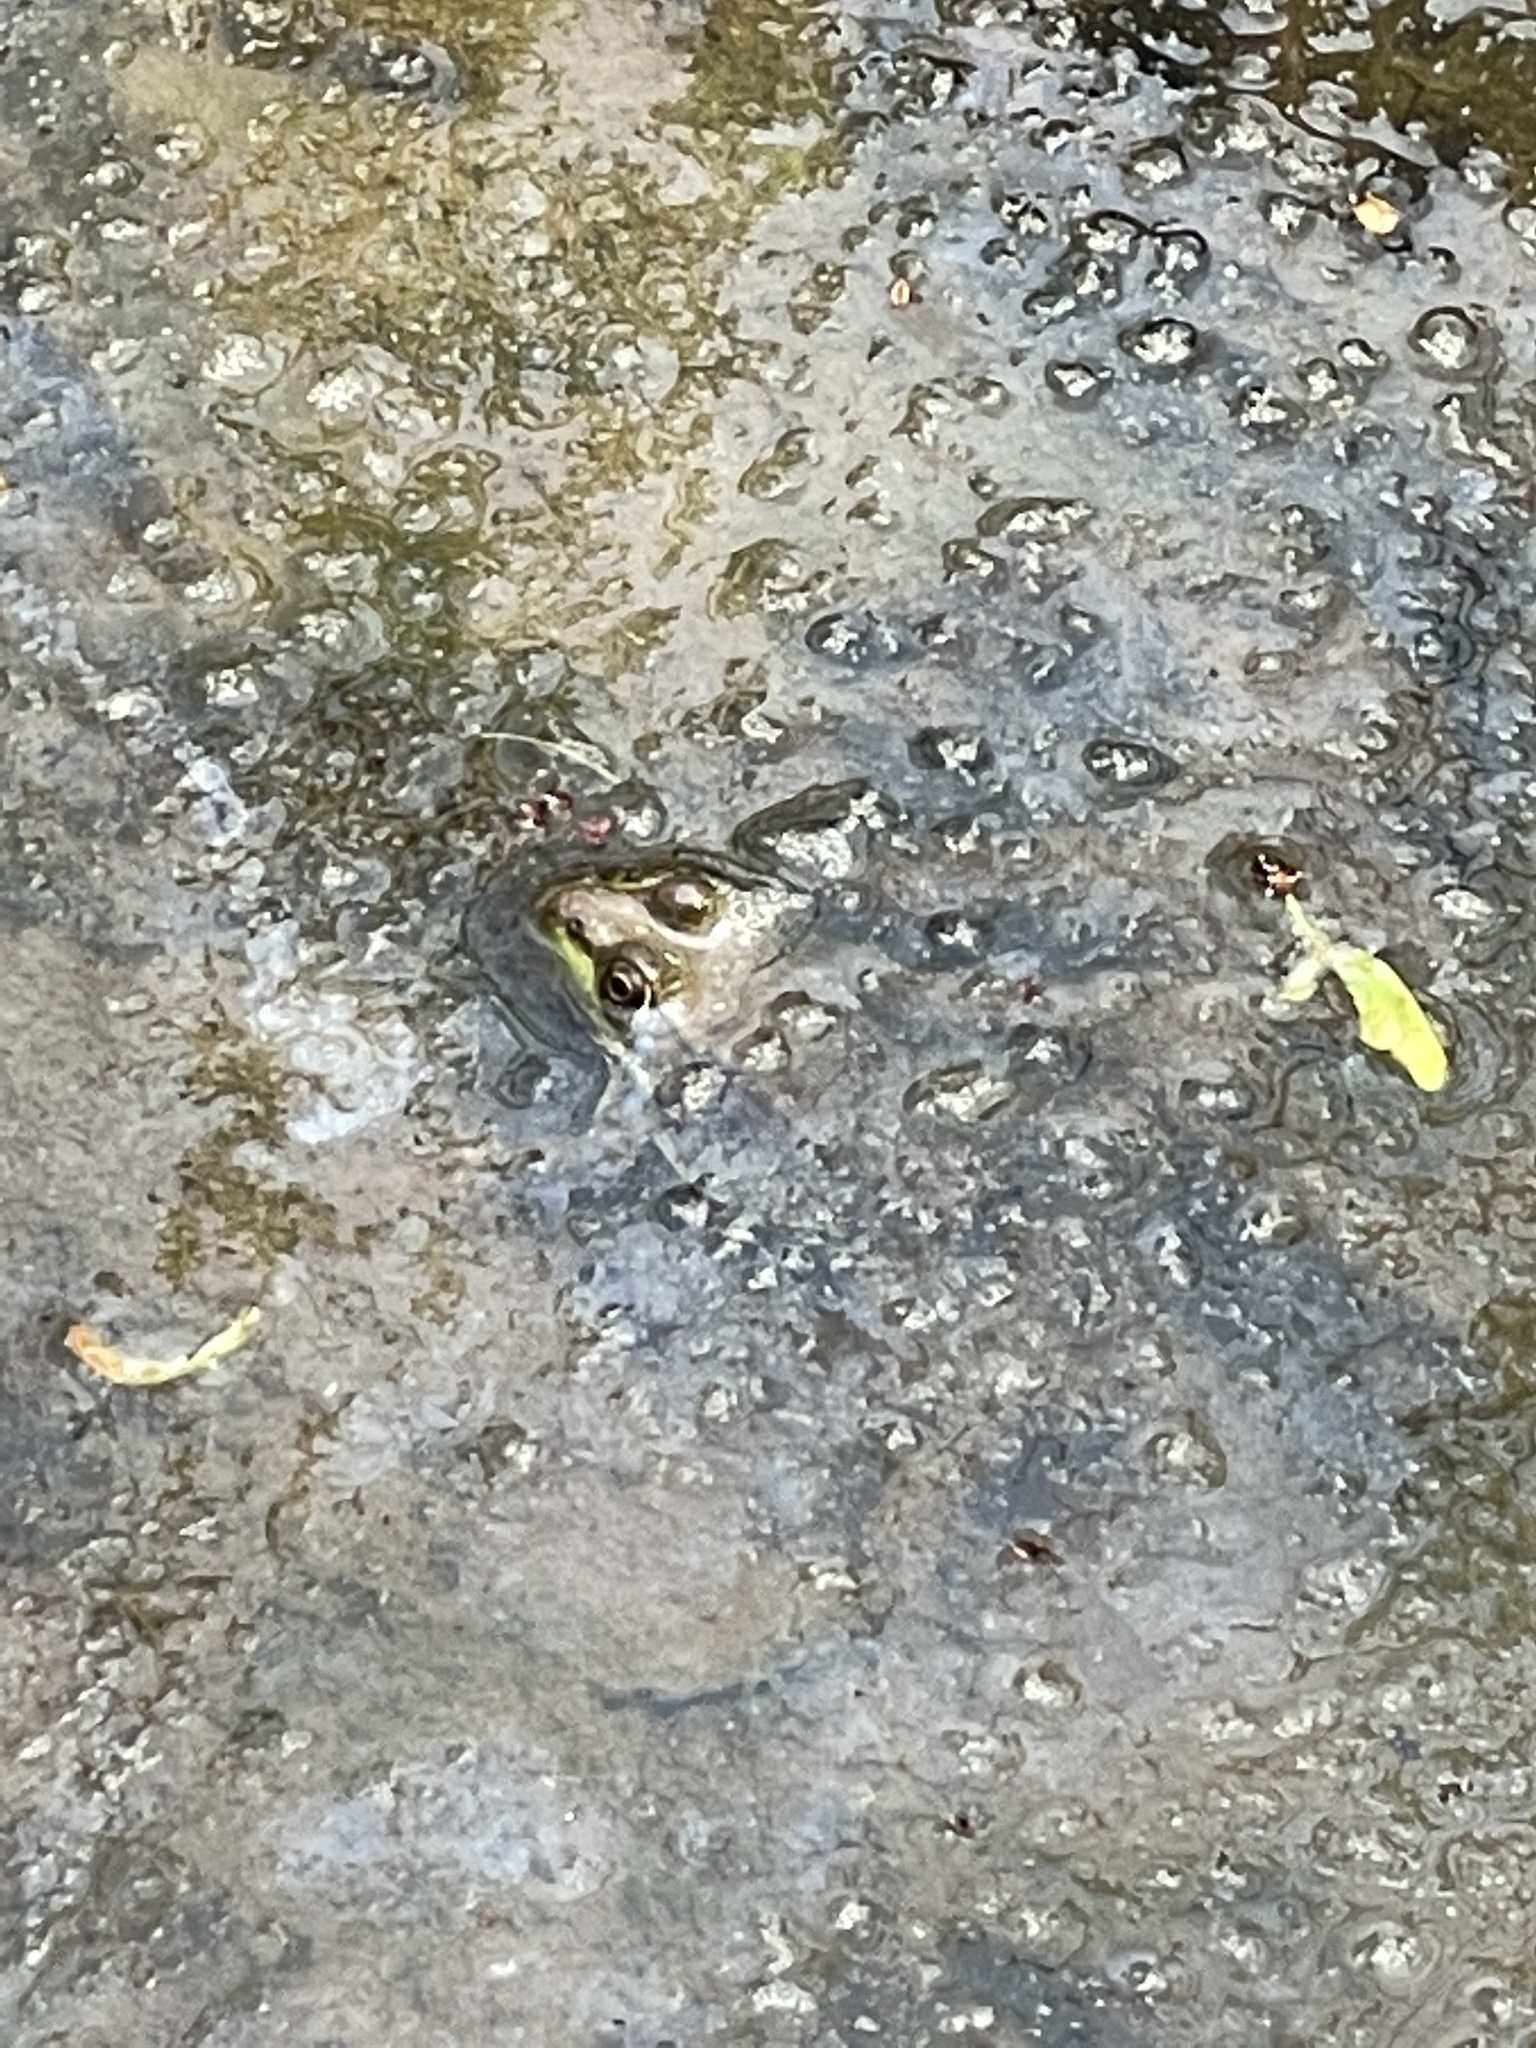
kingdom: Animalia
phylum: Chordata
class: Amphibia
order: Anura
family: Ranidae
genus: Lithobates
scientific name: Lithobates clamitans
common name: Green frog
